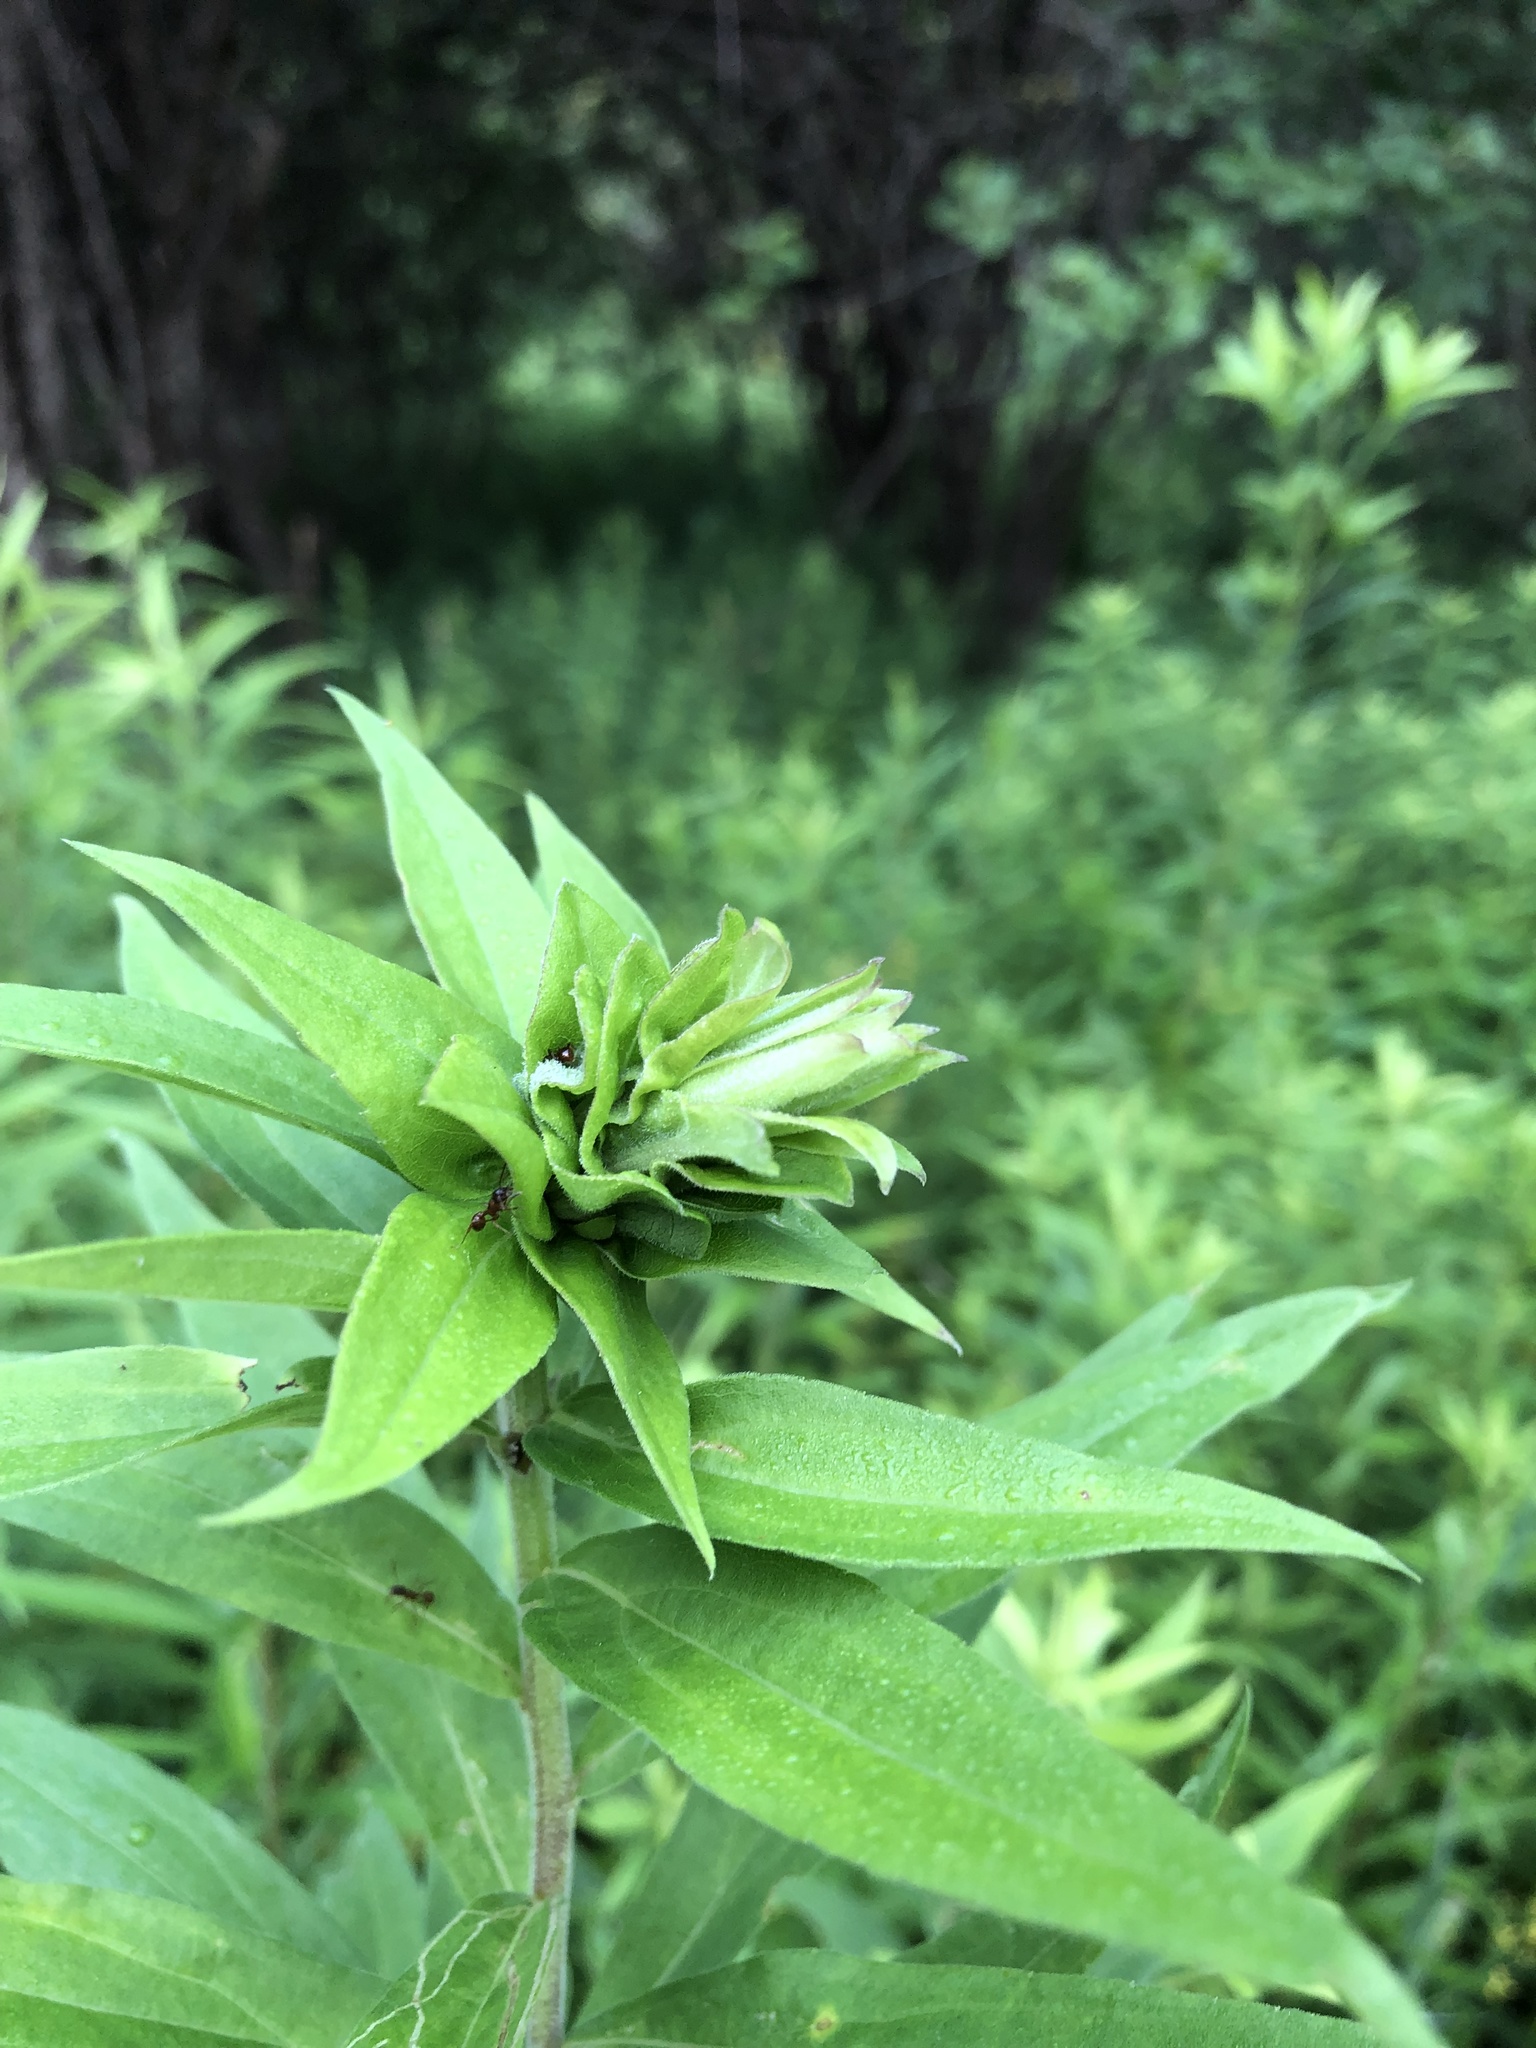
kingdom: Animalia
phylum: Arthropoda
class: Insecta
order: Diptera
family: Cecidomyiidae
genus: Rhopalomyia
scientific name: Rhopalomyia solidaginis
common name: Goldenrod bunch gall midge
